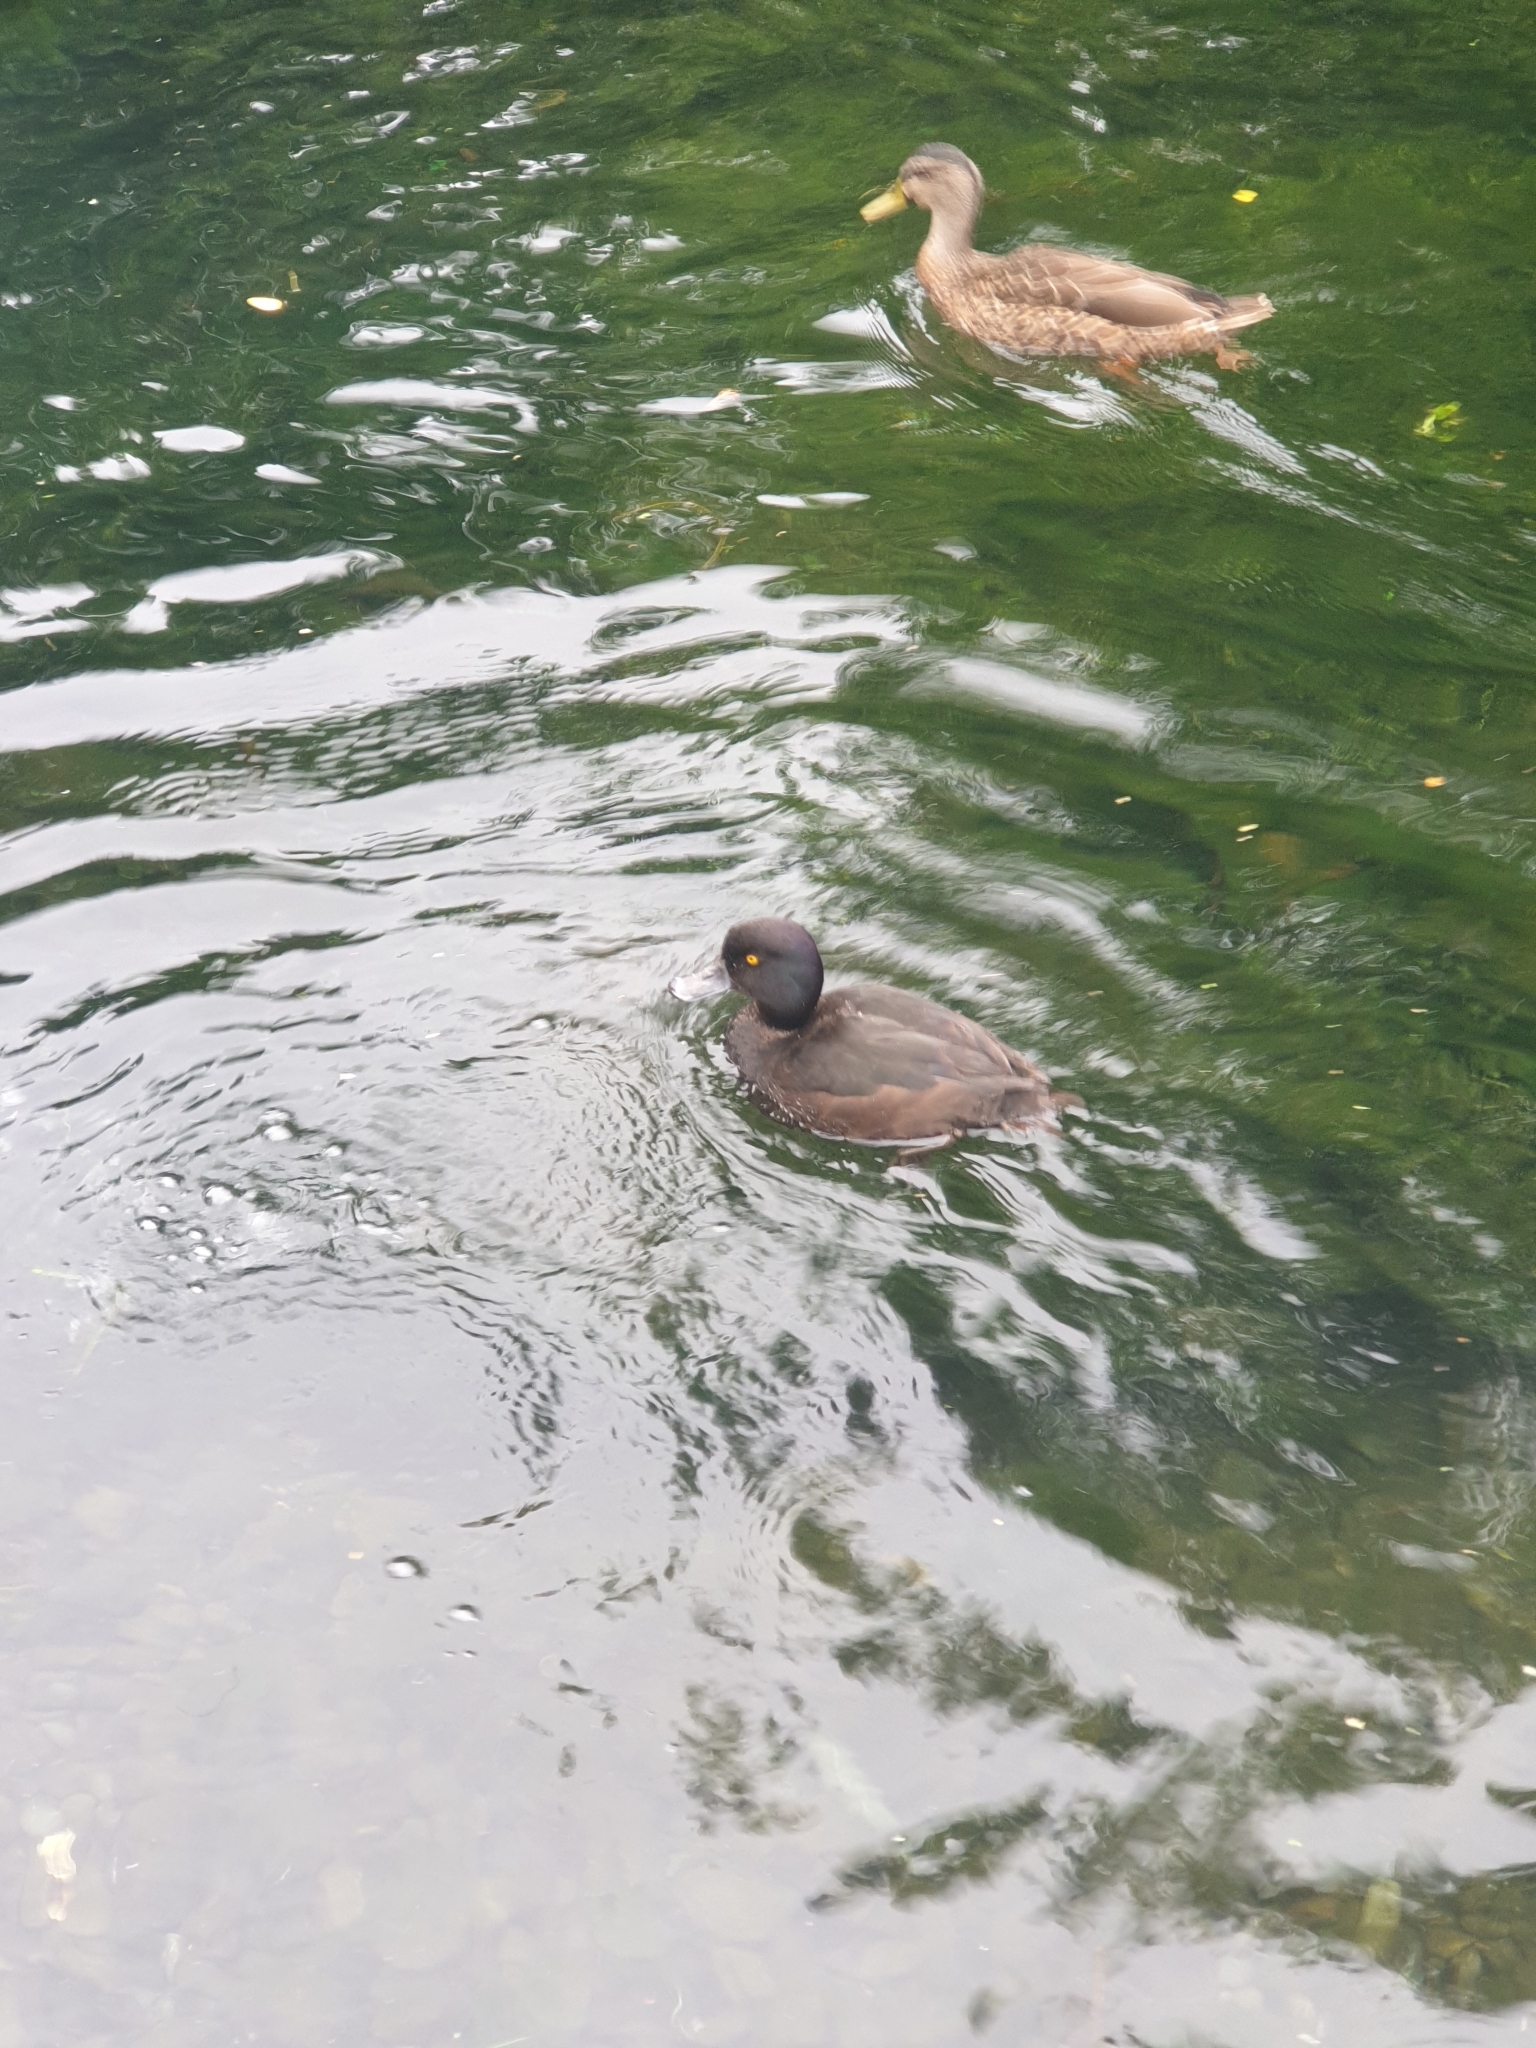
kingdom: Animalia
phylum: Chordata
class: Aves
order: Anseriformes
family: Anatidae
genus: Aythya
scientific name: Aythya novaeseelandiae
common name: New zealand scaup
